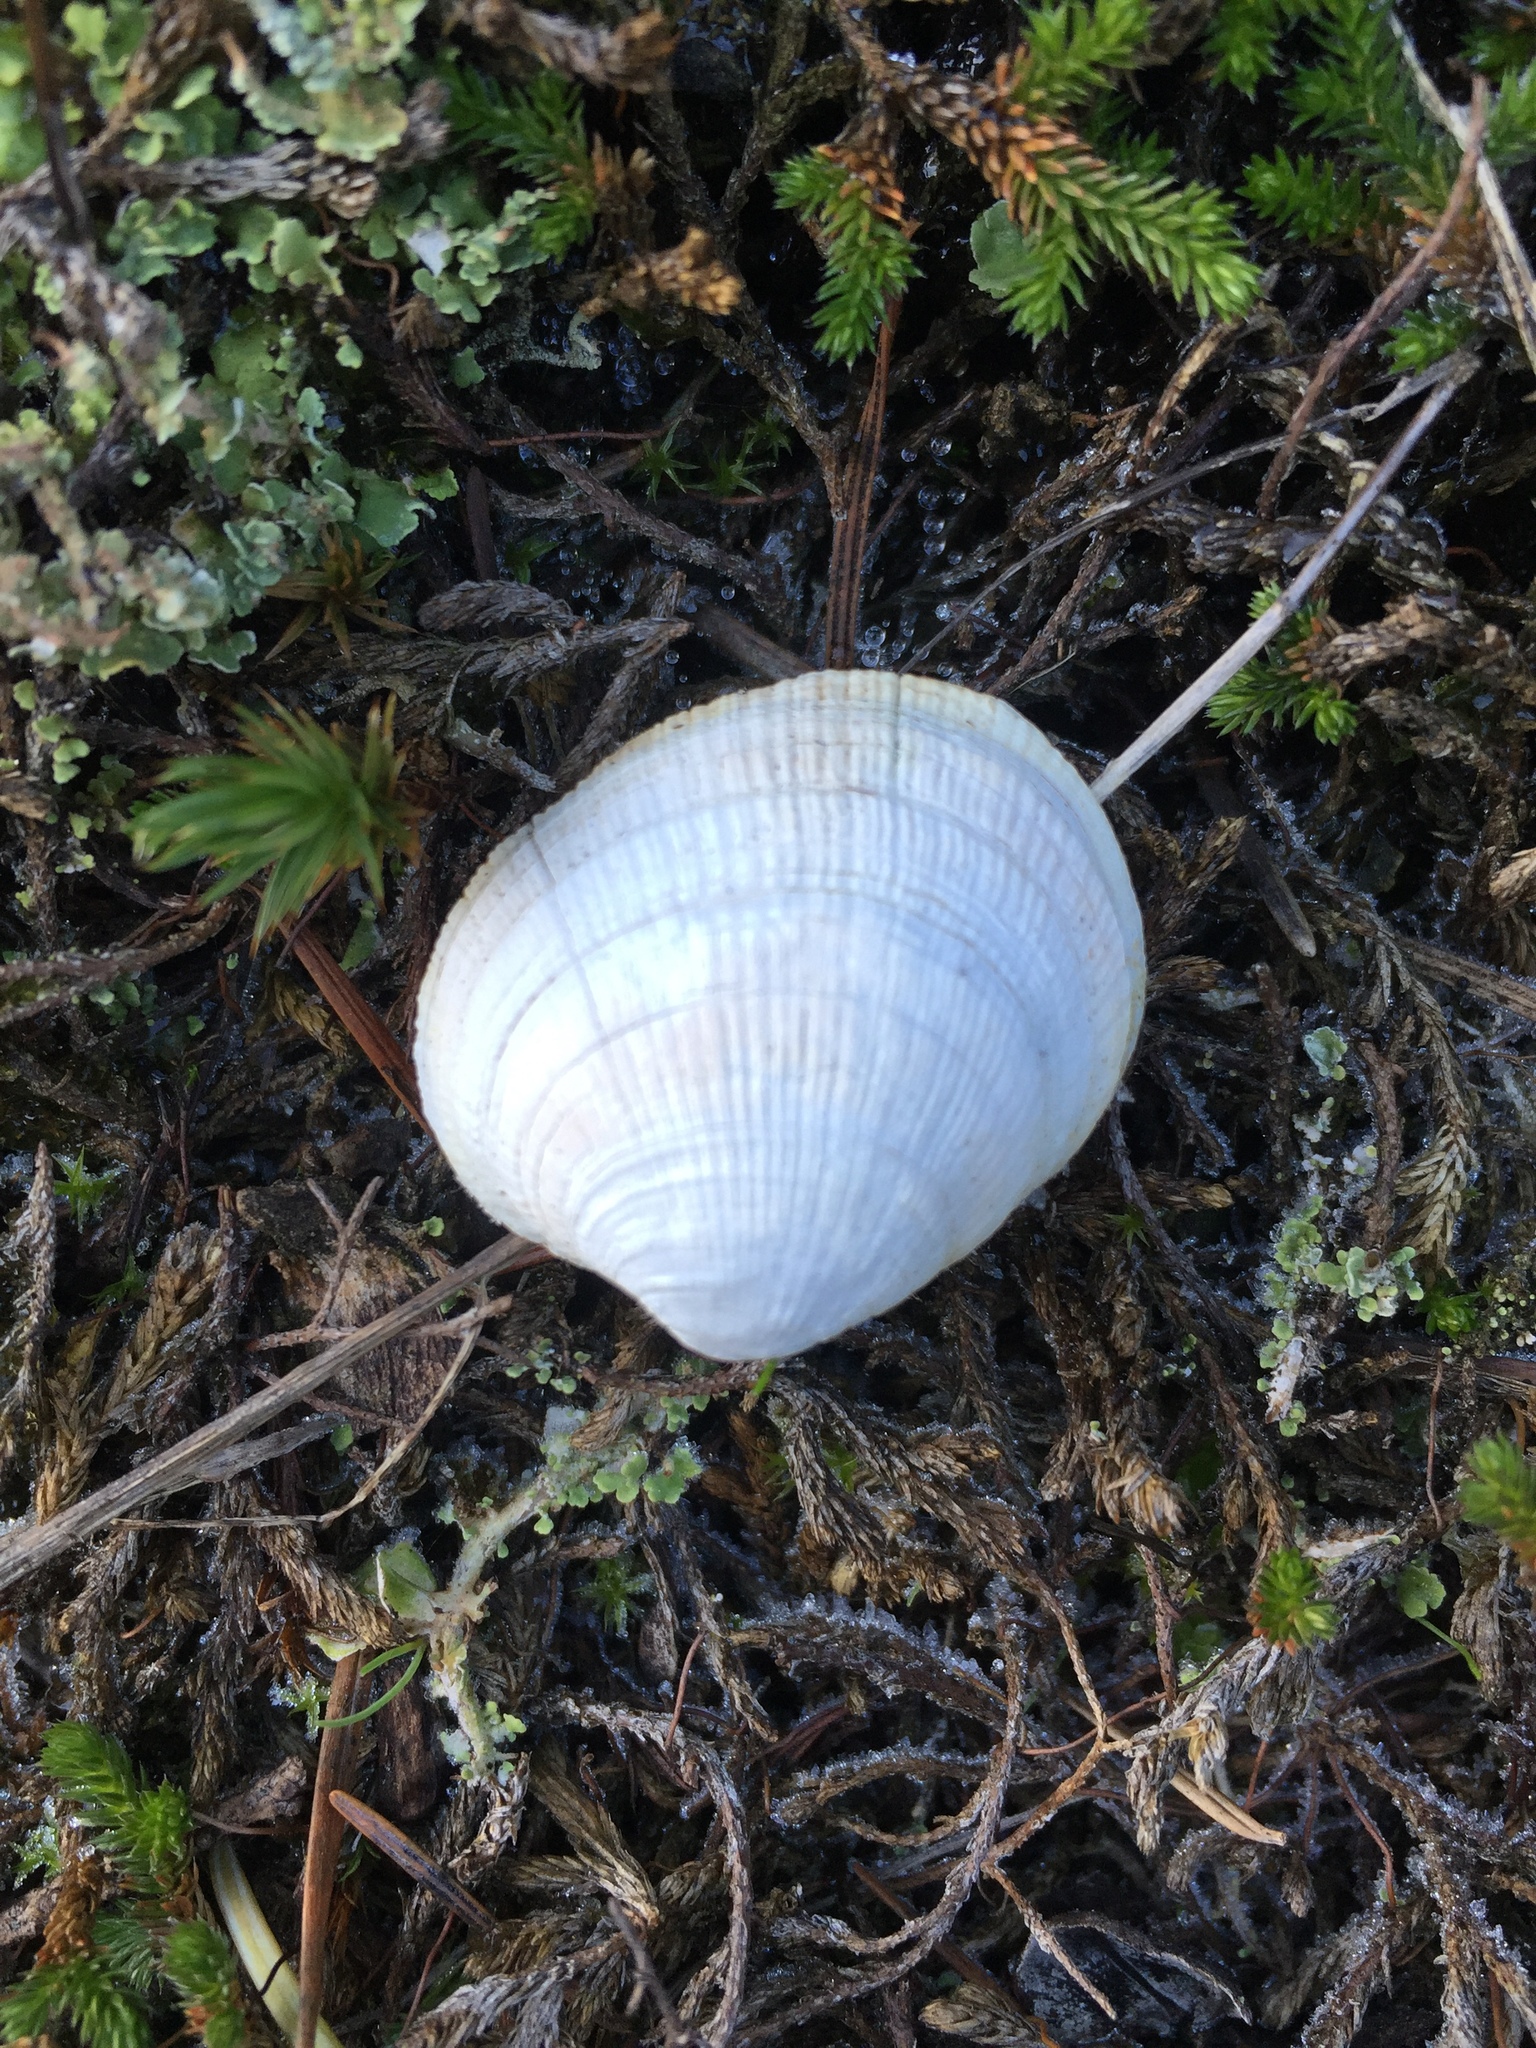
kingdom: Animalia
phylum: Mollusca
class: Bivalvia
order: Venerida
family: Veneridae
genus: Leukoma
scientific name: Leukoma staminea
